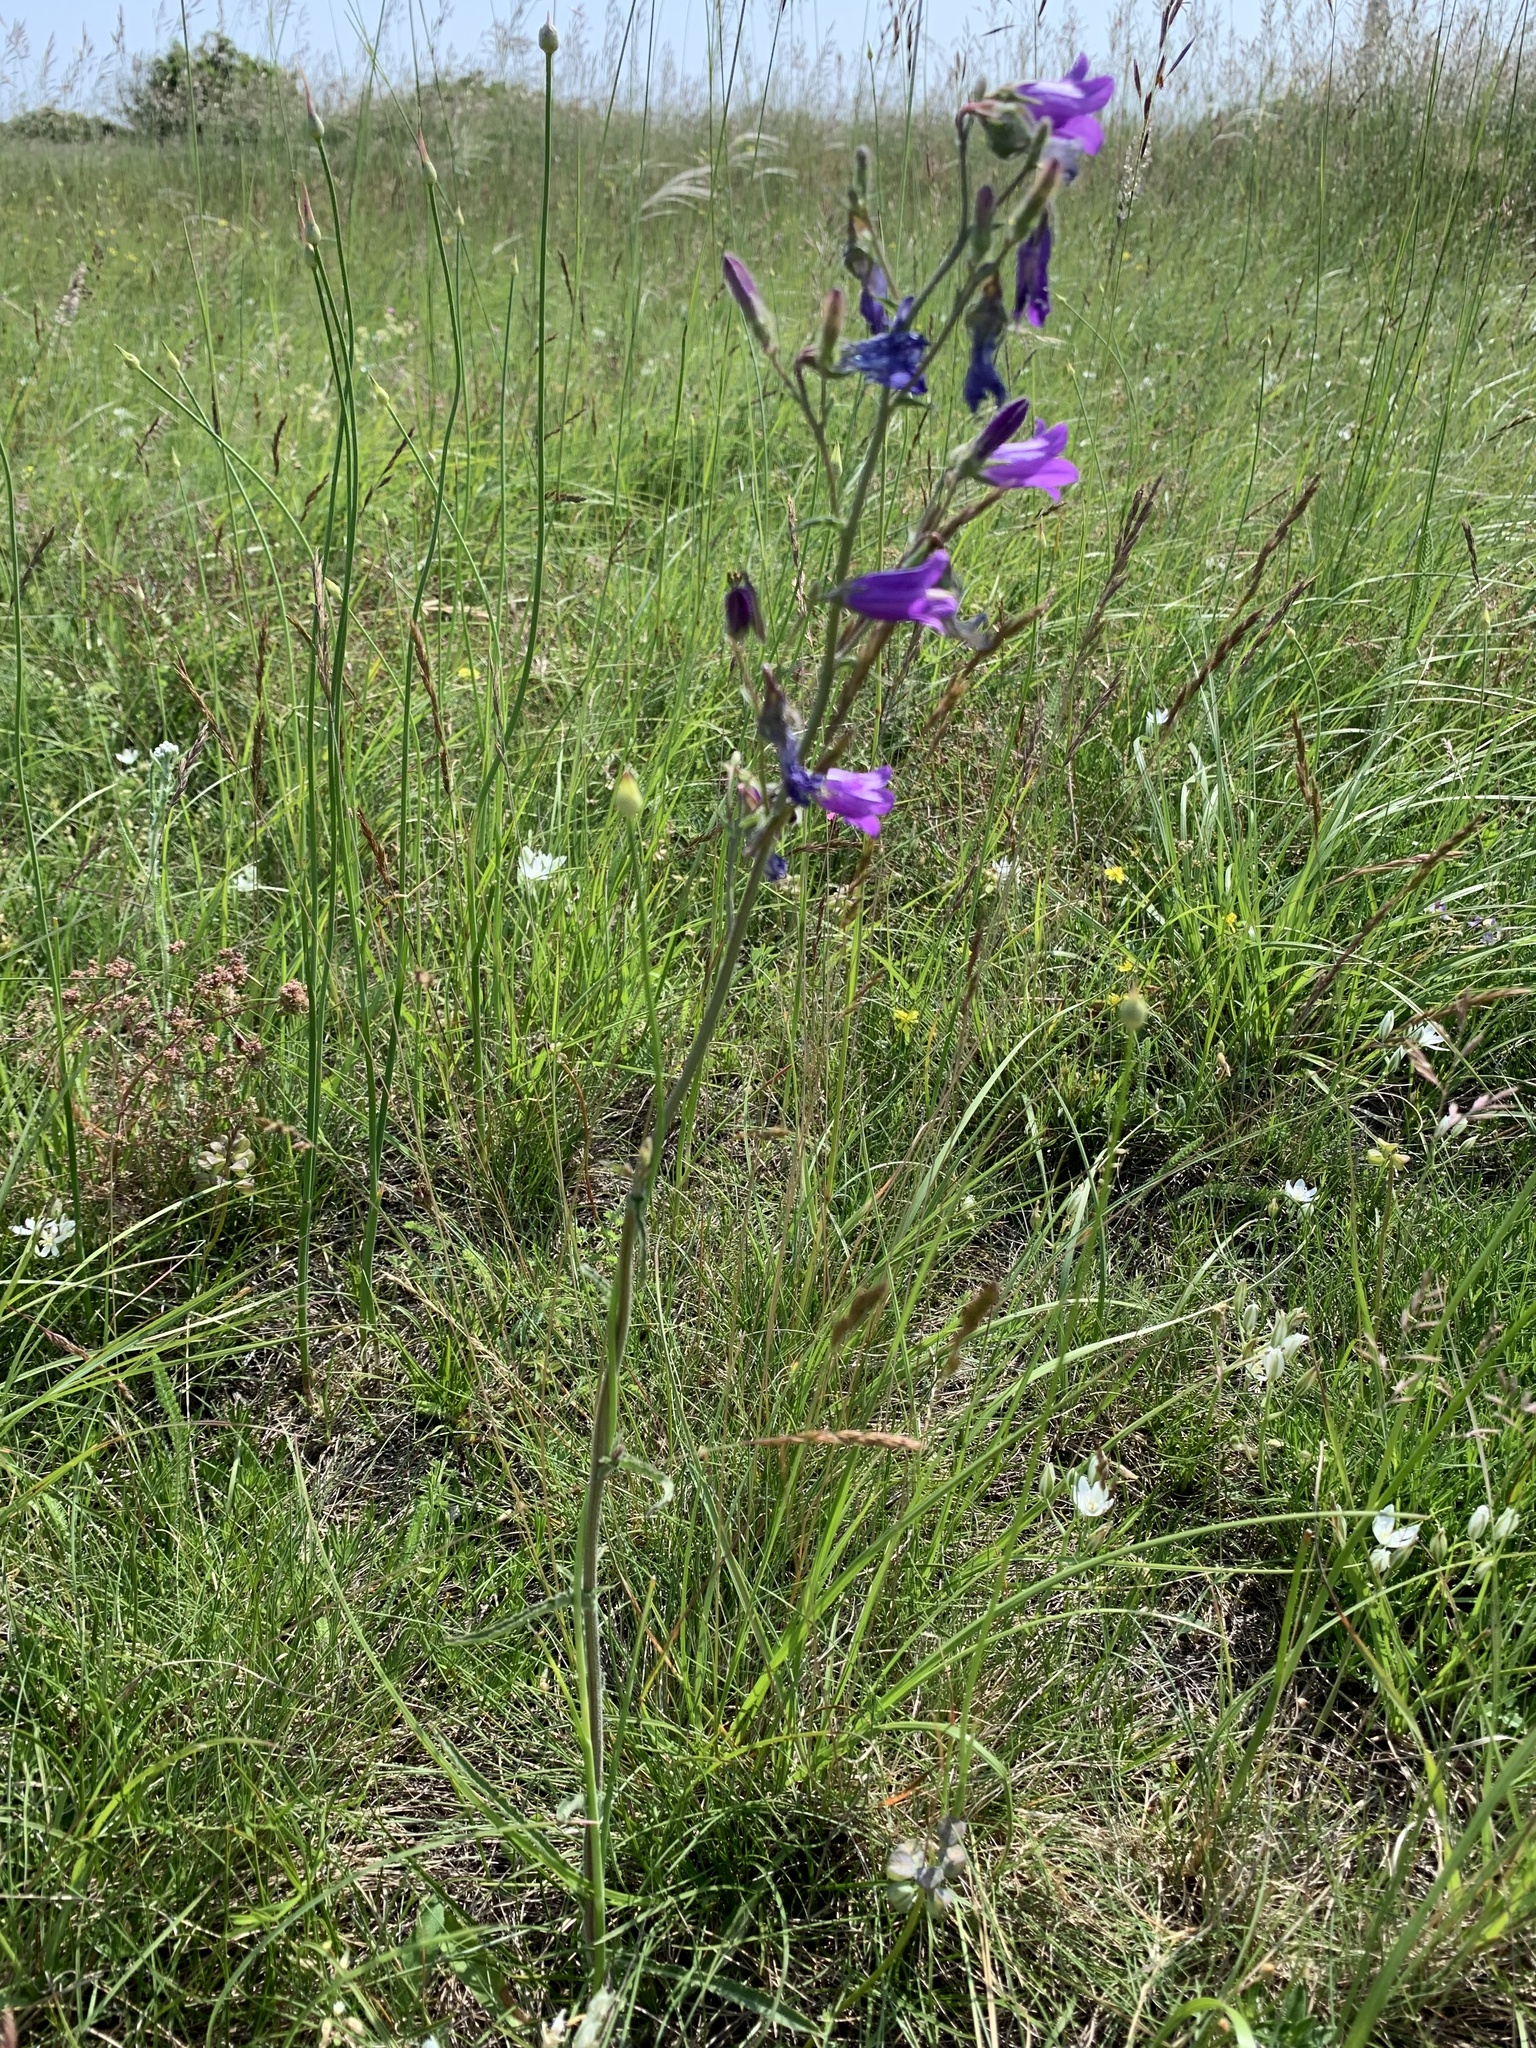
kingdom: Plantae
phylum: Tracheophyta
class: Magnoliopsida
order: Asterales
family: Campanulaceae
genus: Campanula
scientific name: Campanula sibirica
